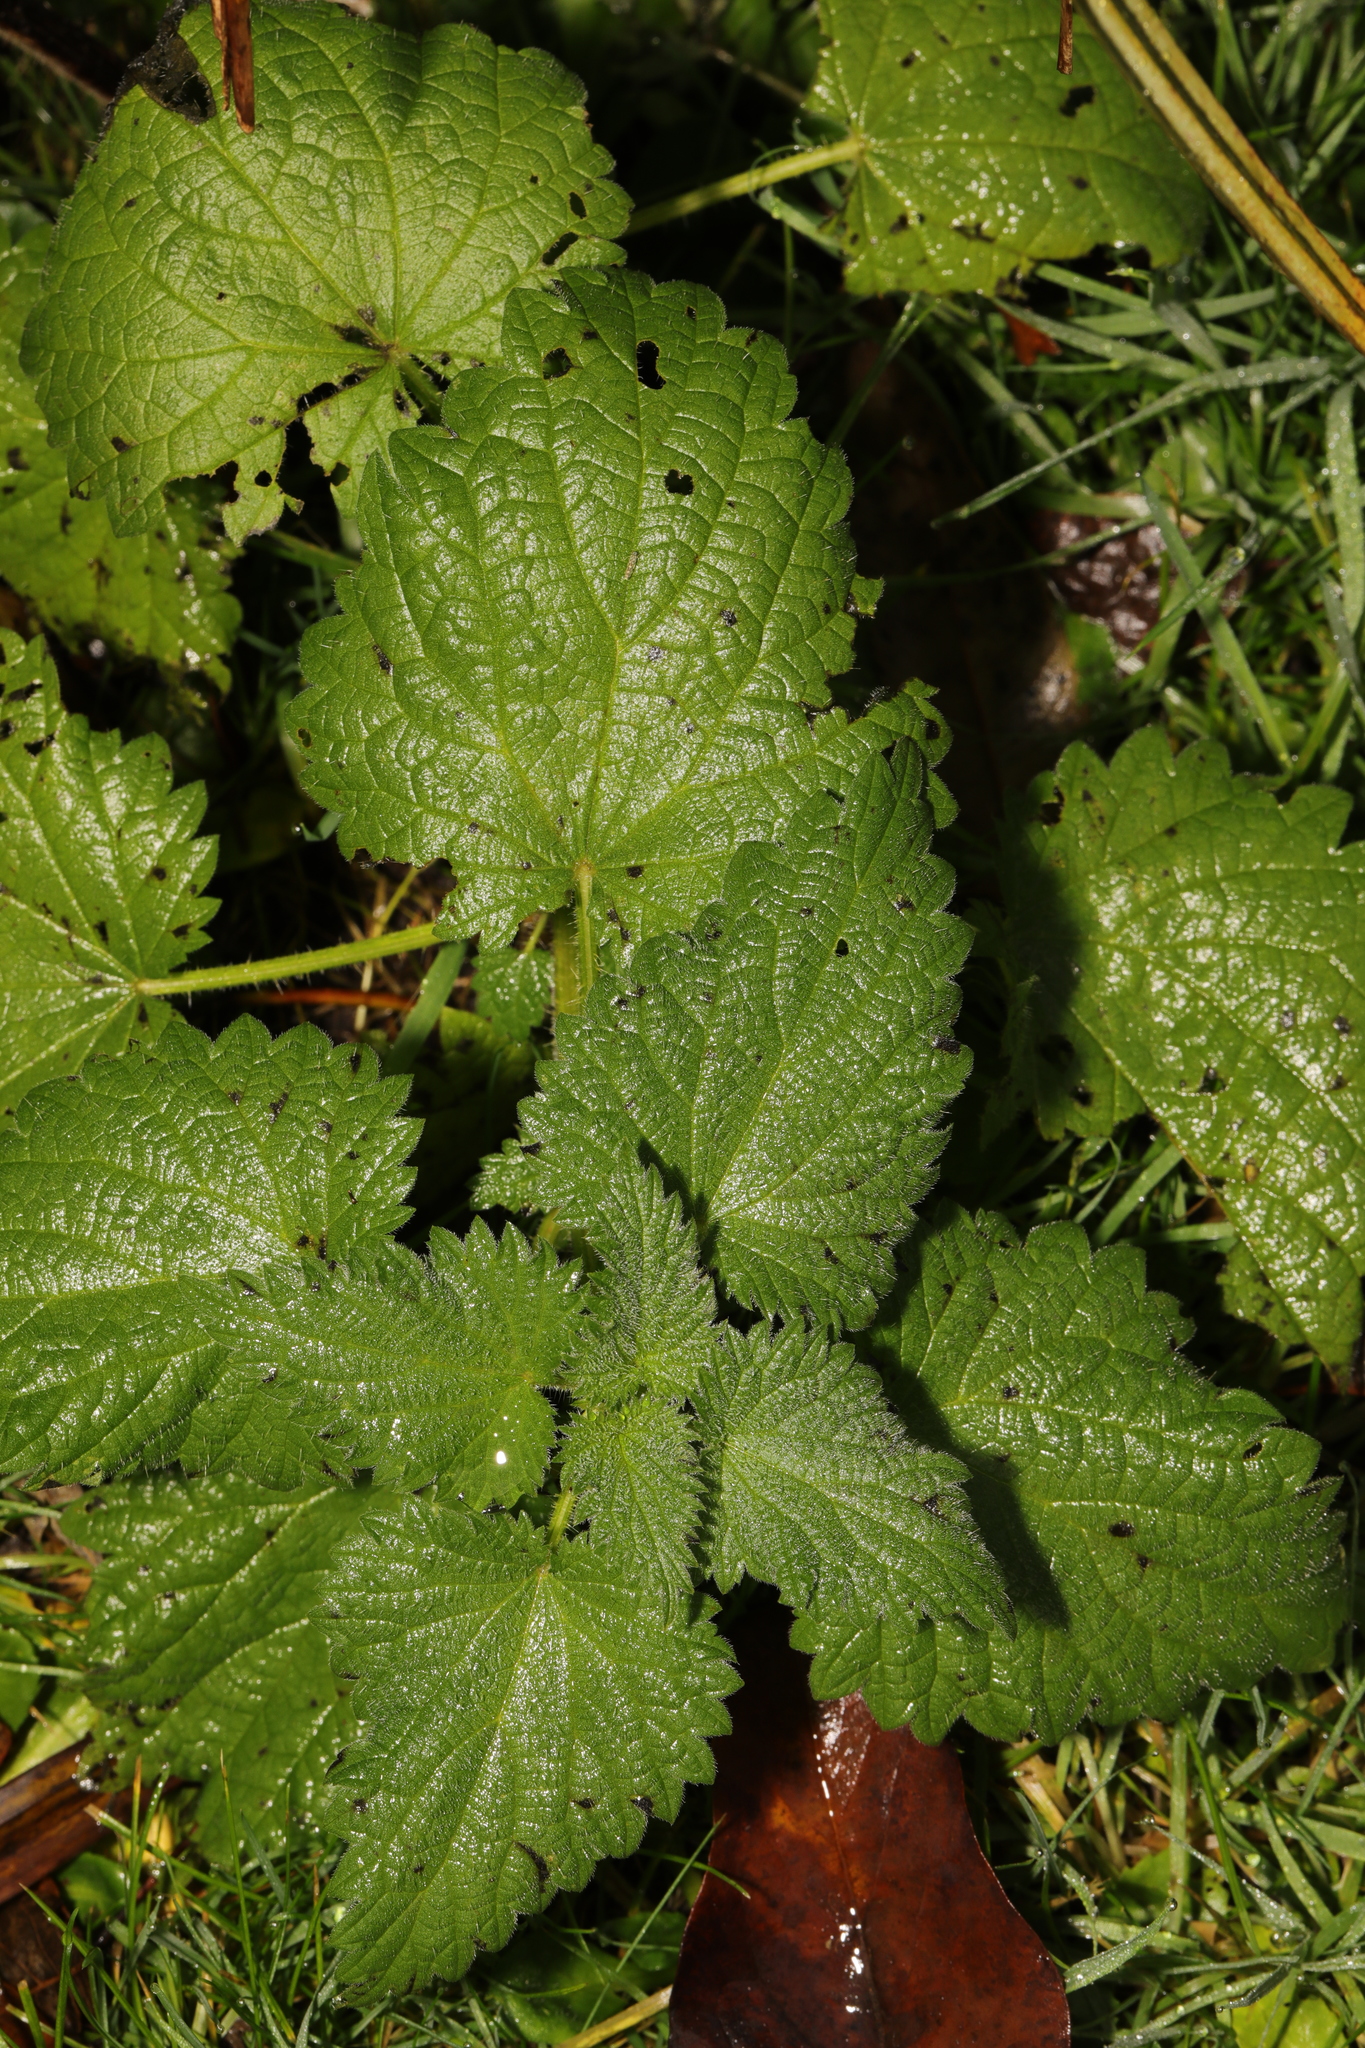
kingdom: Plantae
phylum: Tracheophyta
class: Magnoliopsida
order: Rosales
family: Urticaceae
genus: Urtica
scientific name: Urtica dioica
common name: Common nettle
